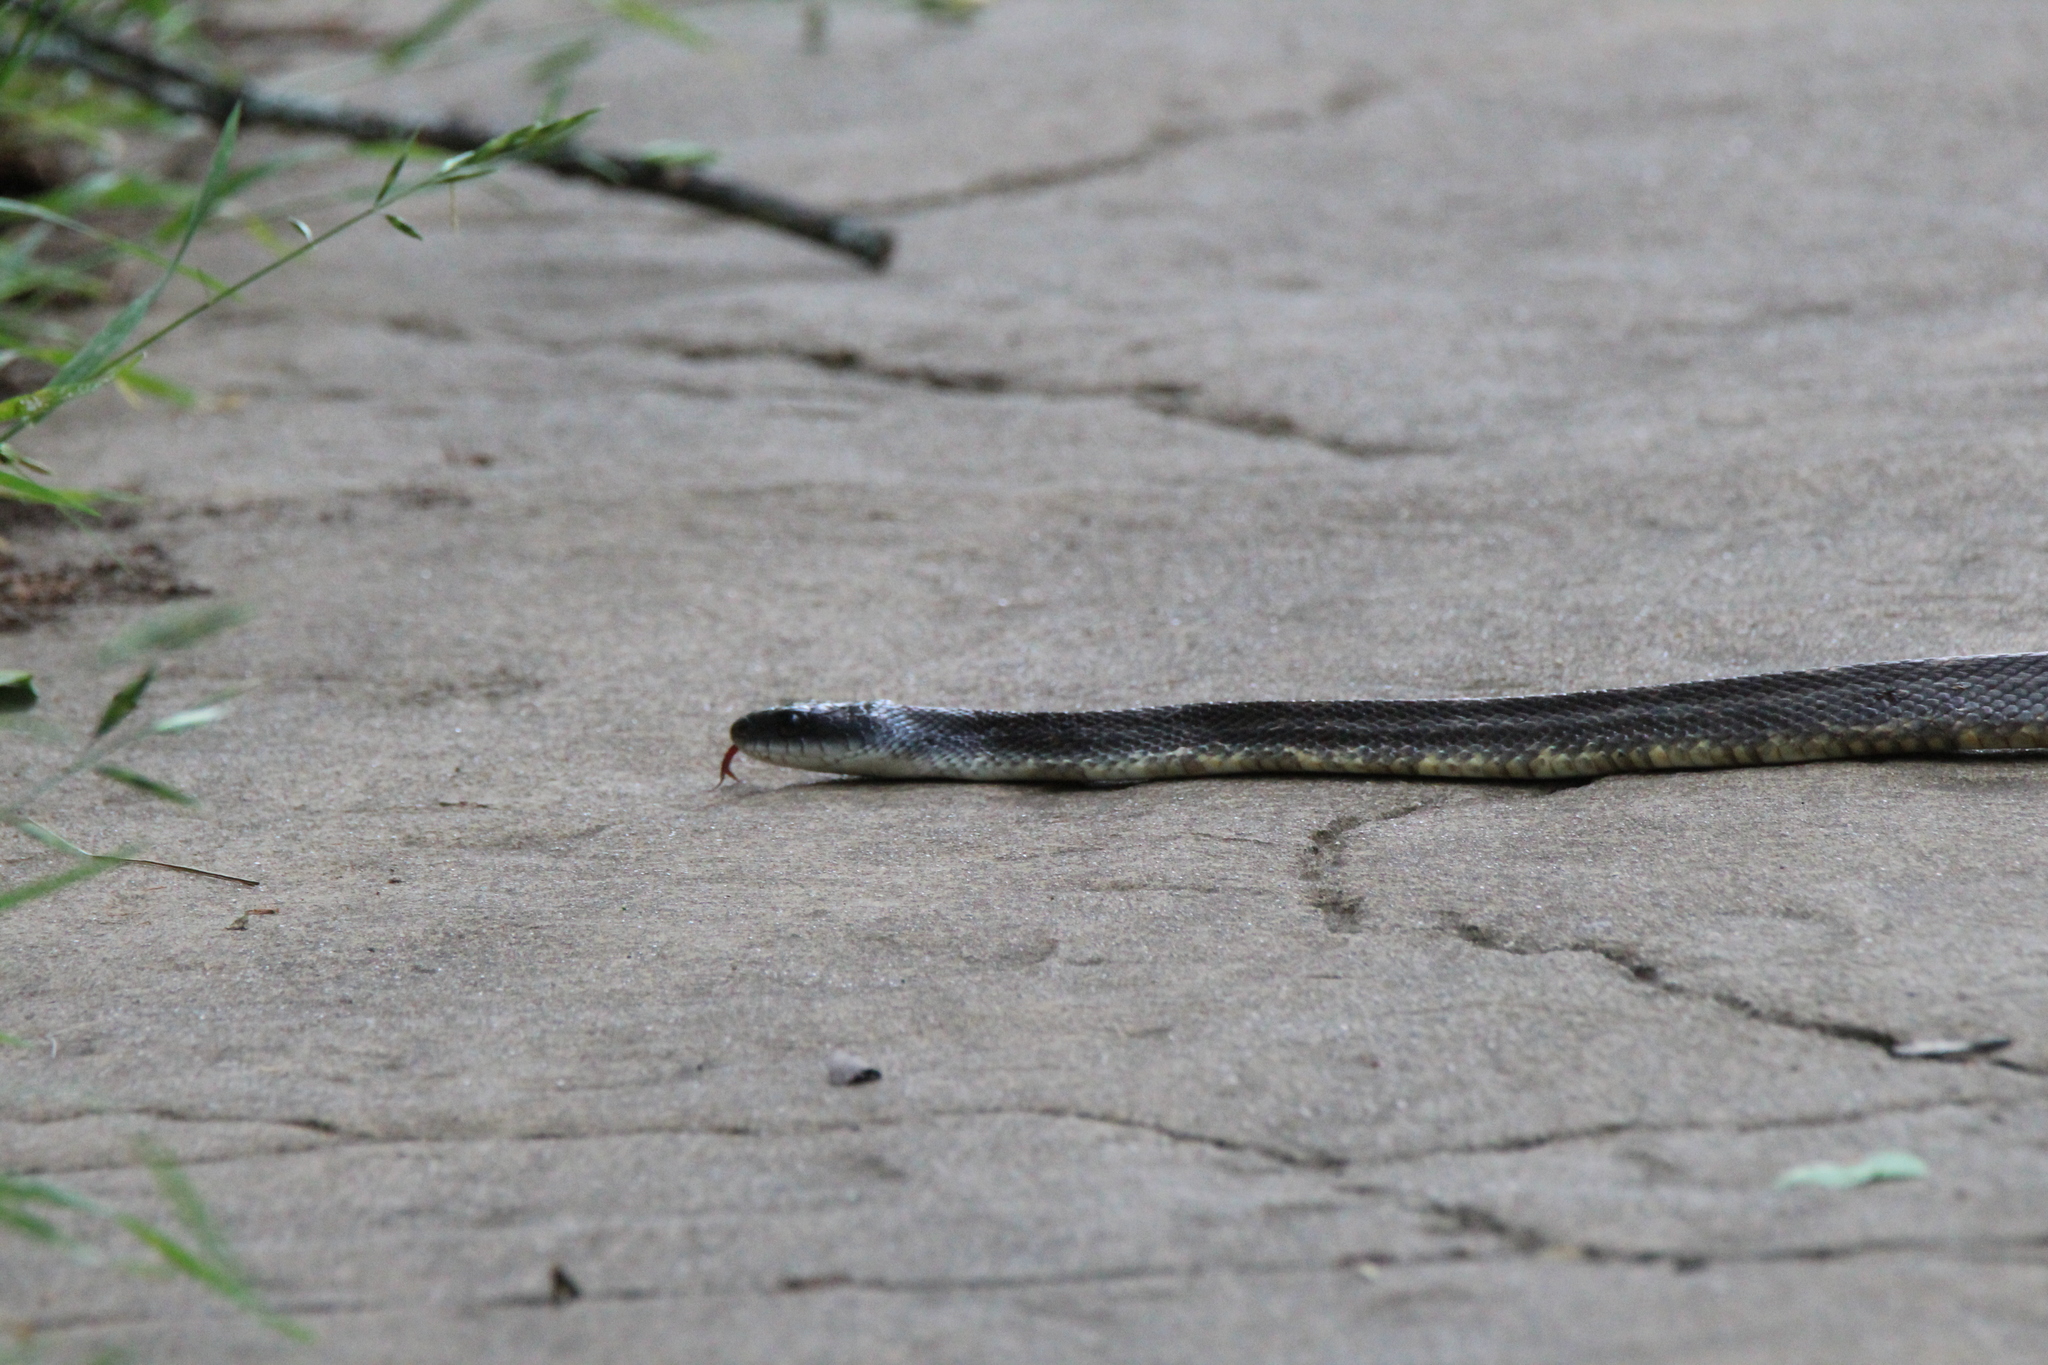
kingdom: Animalia
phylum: Chordata
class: Squamata
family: Colubridae
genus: Pantherophis
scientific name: Pantherophis obsoletus
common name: Black rat snake
